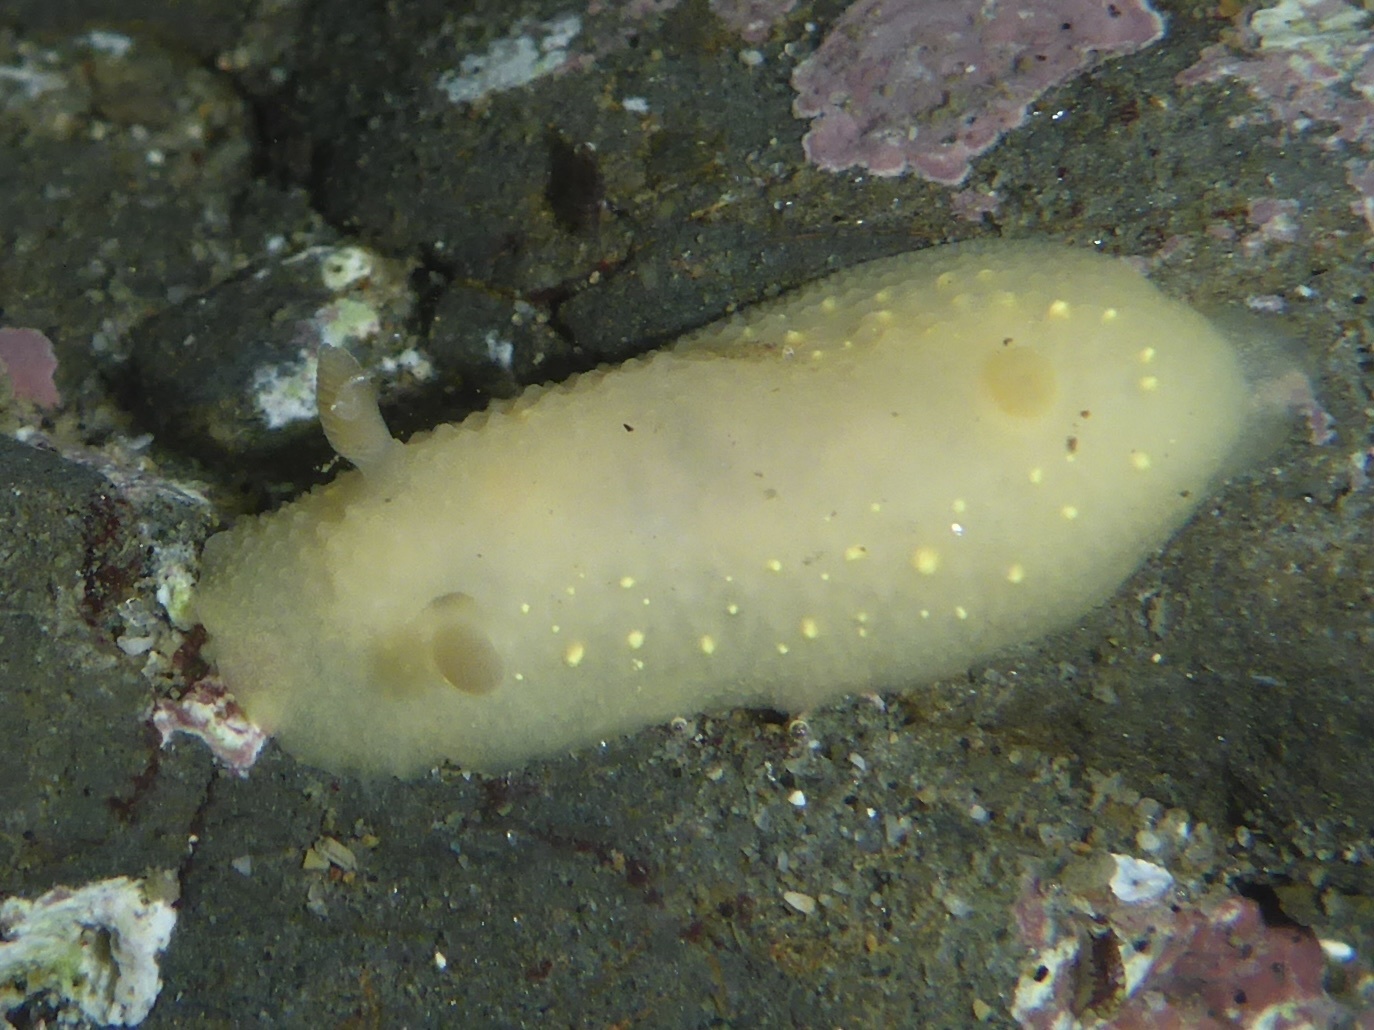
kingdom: Animalia
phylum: Mollusca
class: Gastropoda
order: Nudibranchia
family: Cadlinidae
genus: Cadlina
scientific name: Cadlina modesta
